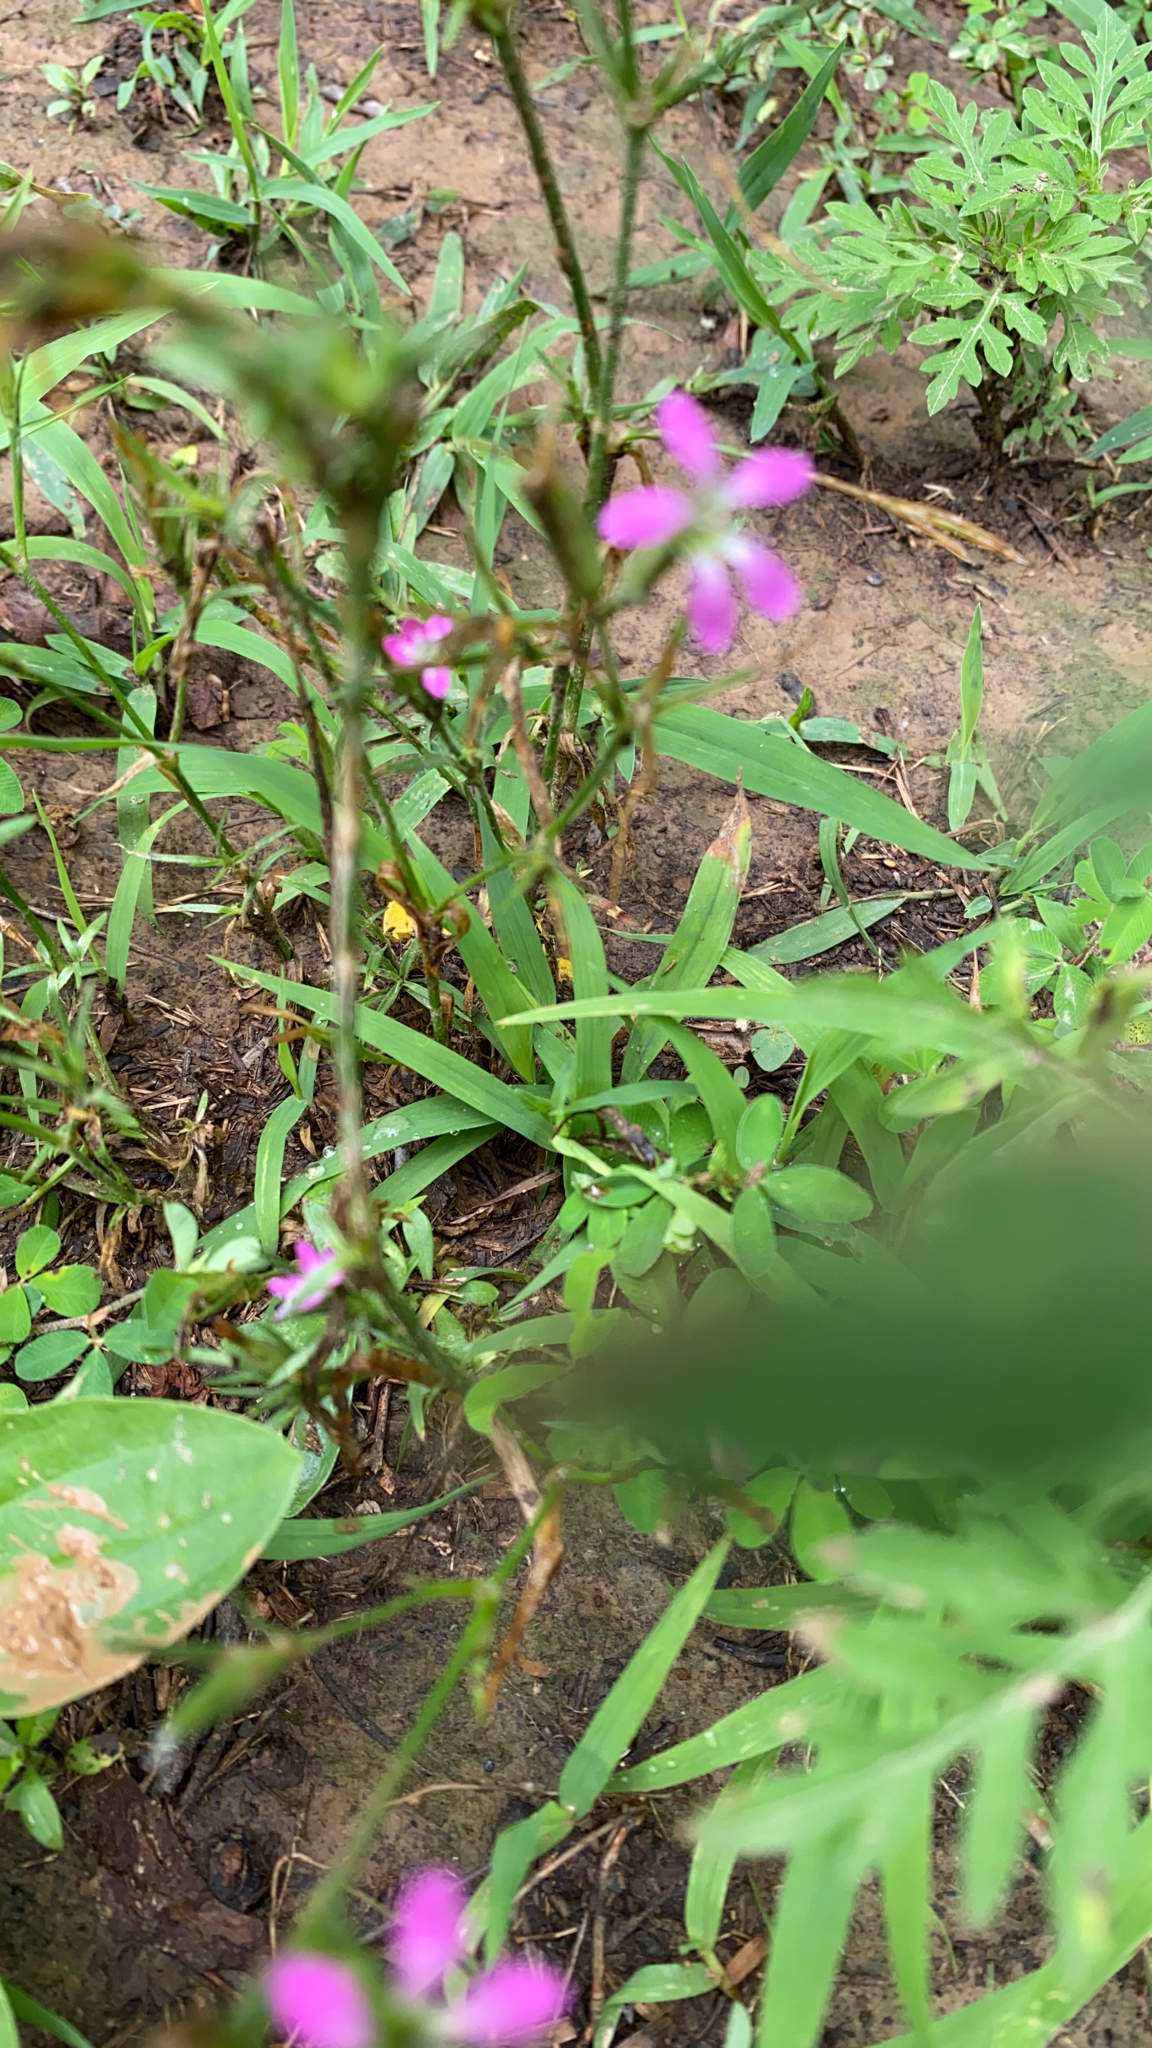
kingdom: Plantae
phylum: Tracheophyta
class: Magnoliopsida
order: Caryophyllales
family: Caryophyllaceae
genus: Dianthus
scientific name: Dianthus armeria
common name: Deptford pink
